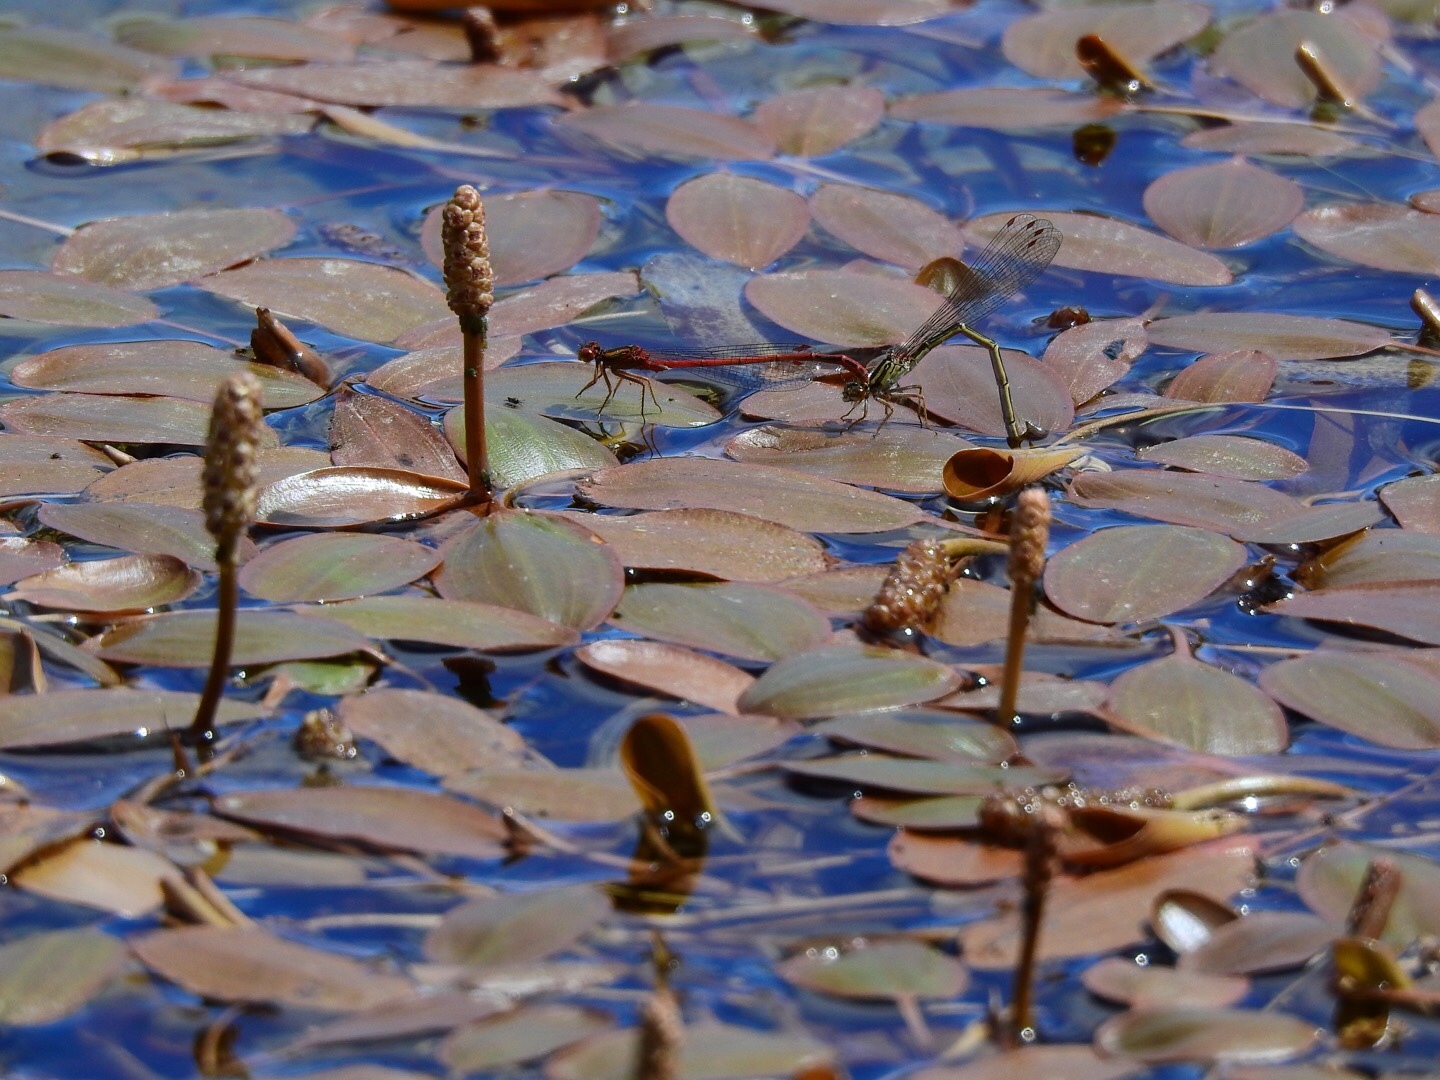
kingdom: Plantae
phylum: Tracheophyta
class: Liliopsida
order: Alismatales
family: Potamogetonaceae
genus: Potamogeton
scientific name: Potamogeton cheesemanii
